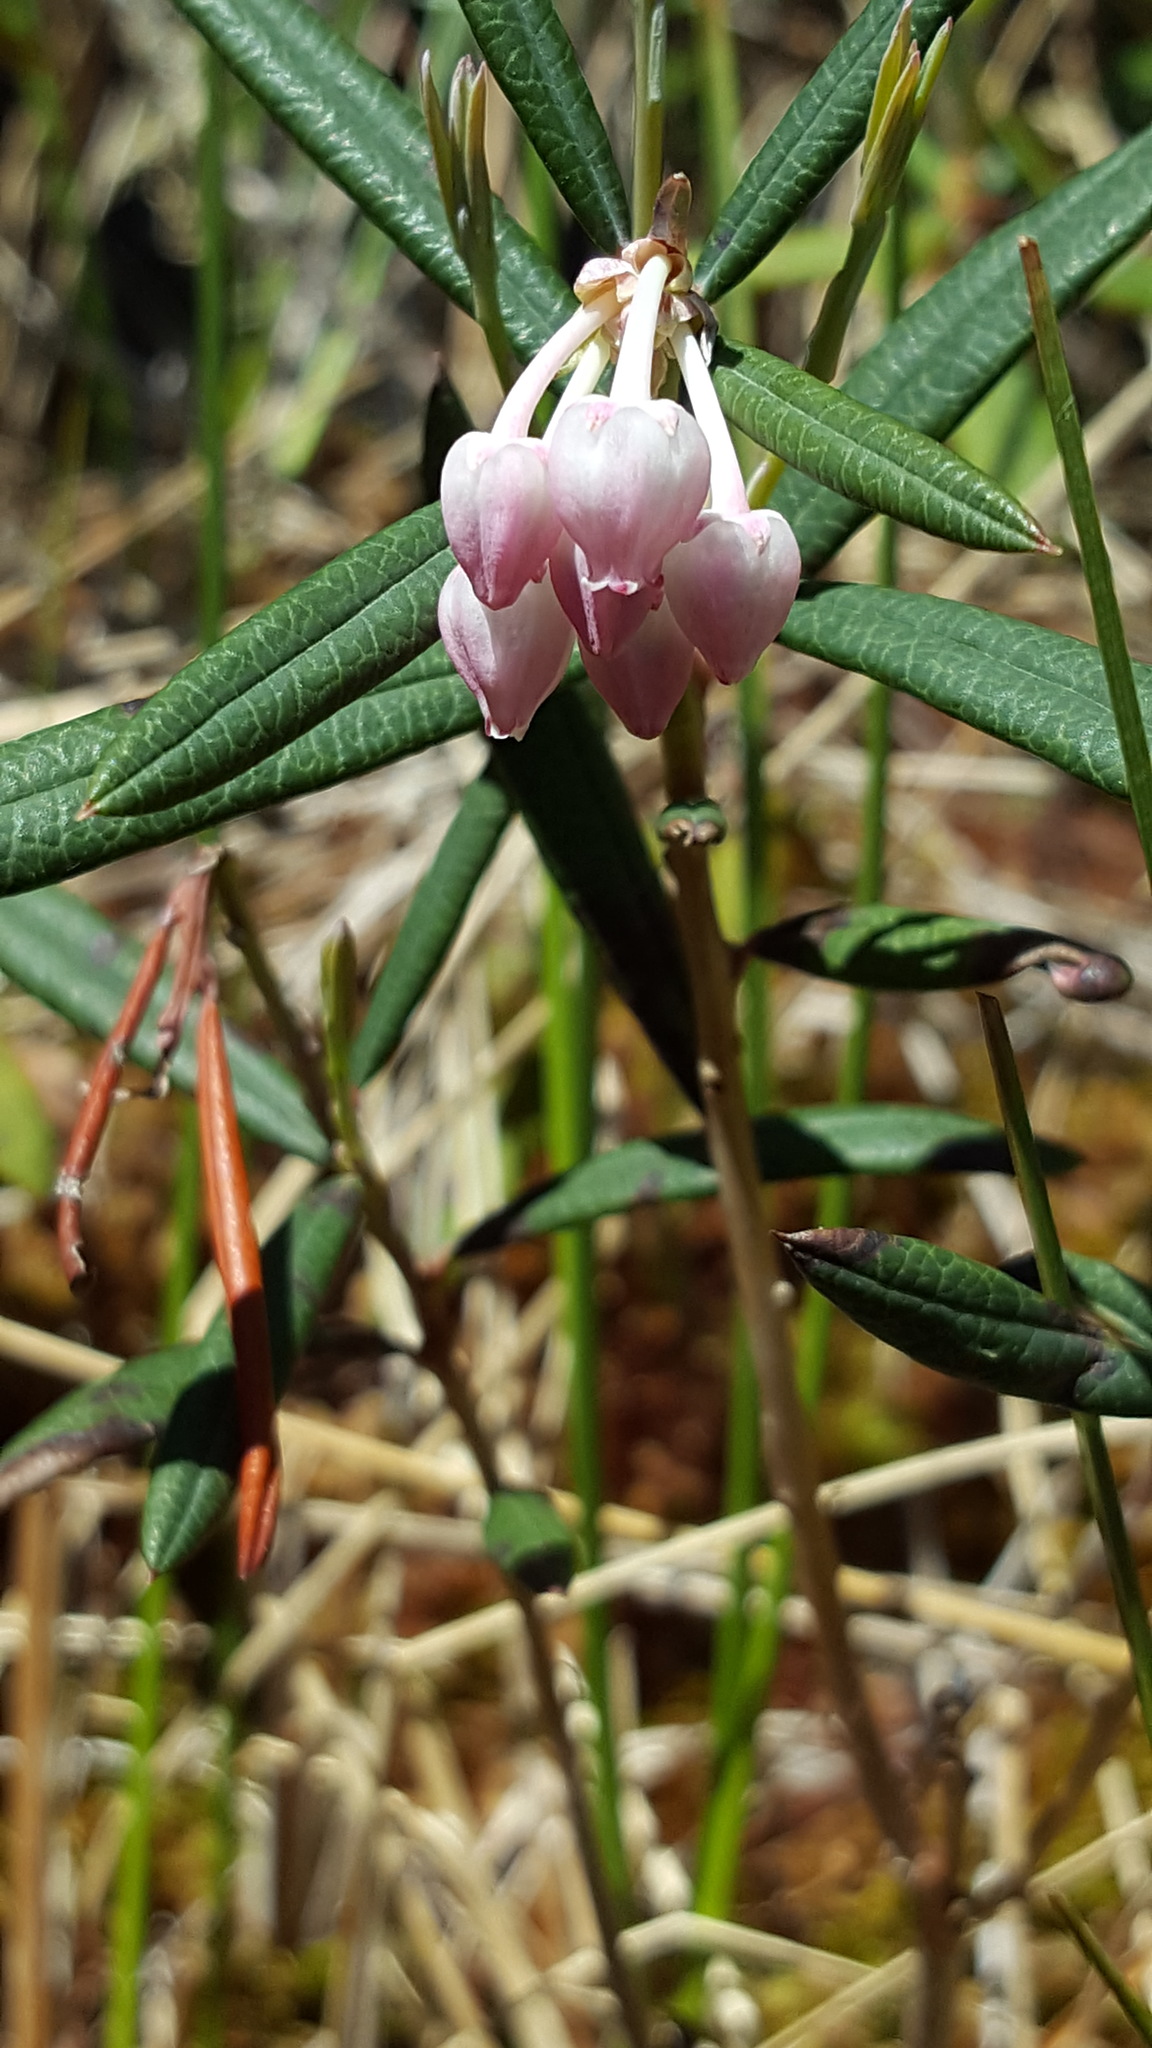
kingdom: Plantae
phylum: Tracheophyta
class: Magnoliopsida
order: Ericales
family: Ericaceae
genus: Andromeda
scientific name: Andromeda polifolia
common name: Bog-rosemary
